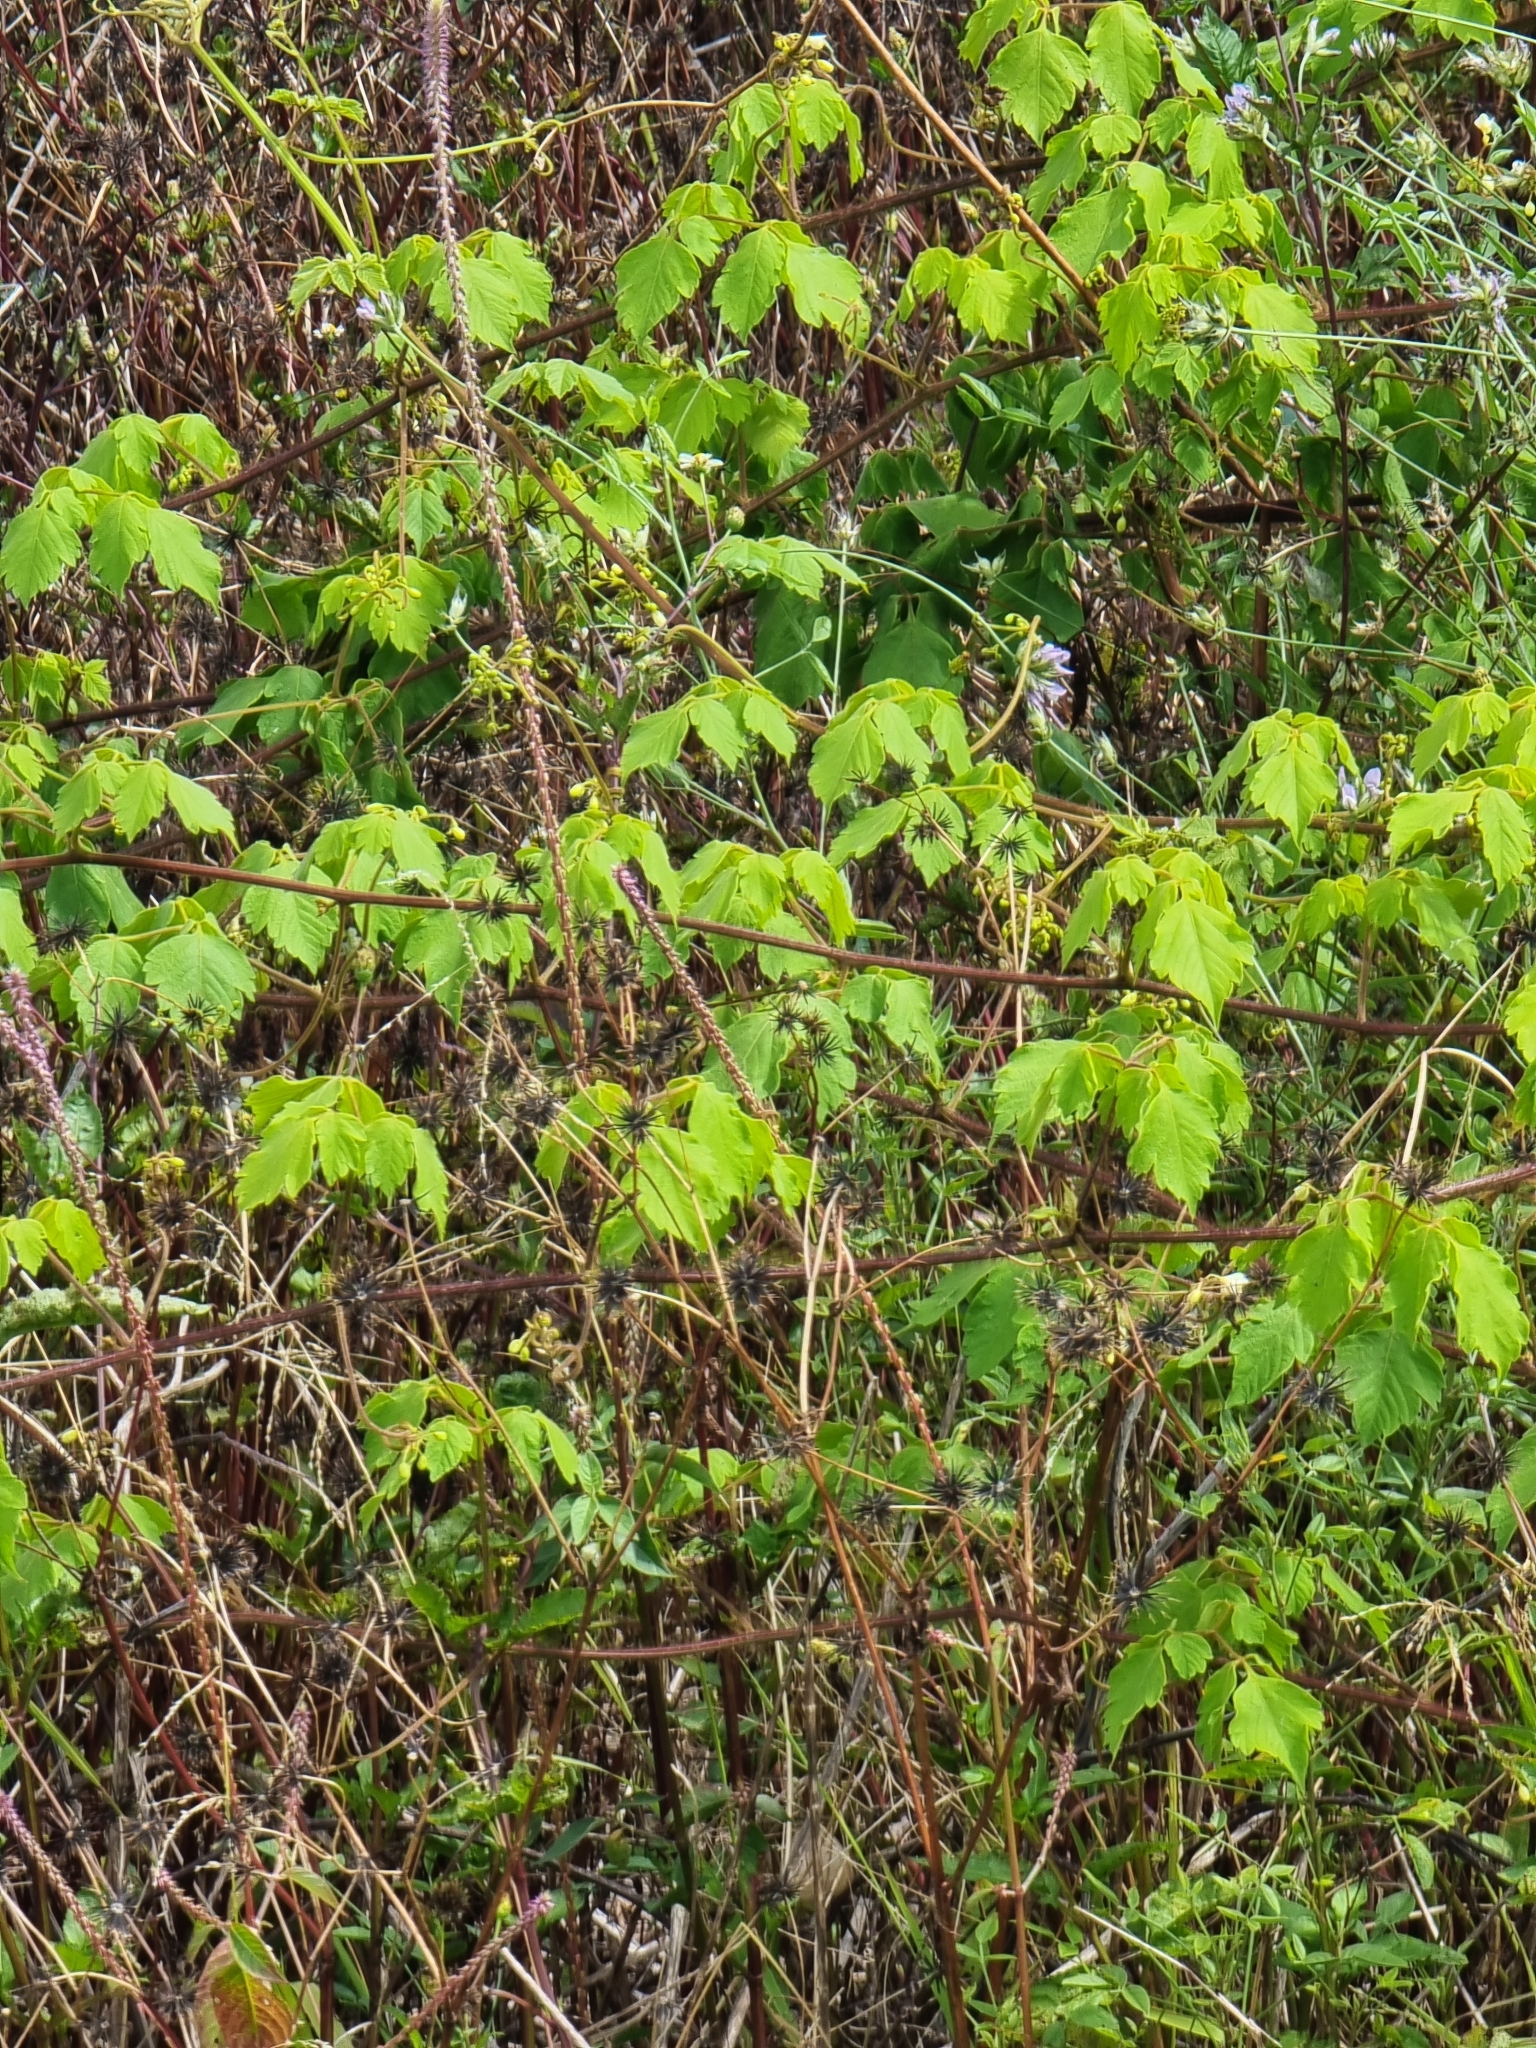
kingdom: Plantae
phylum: Tracheophyta
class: Magnoliopsida
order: Sapindales
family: Sapindaceae
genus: Cardiospermum
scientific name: Cardiospermum grandiflorum
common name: Balloon vine
